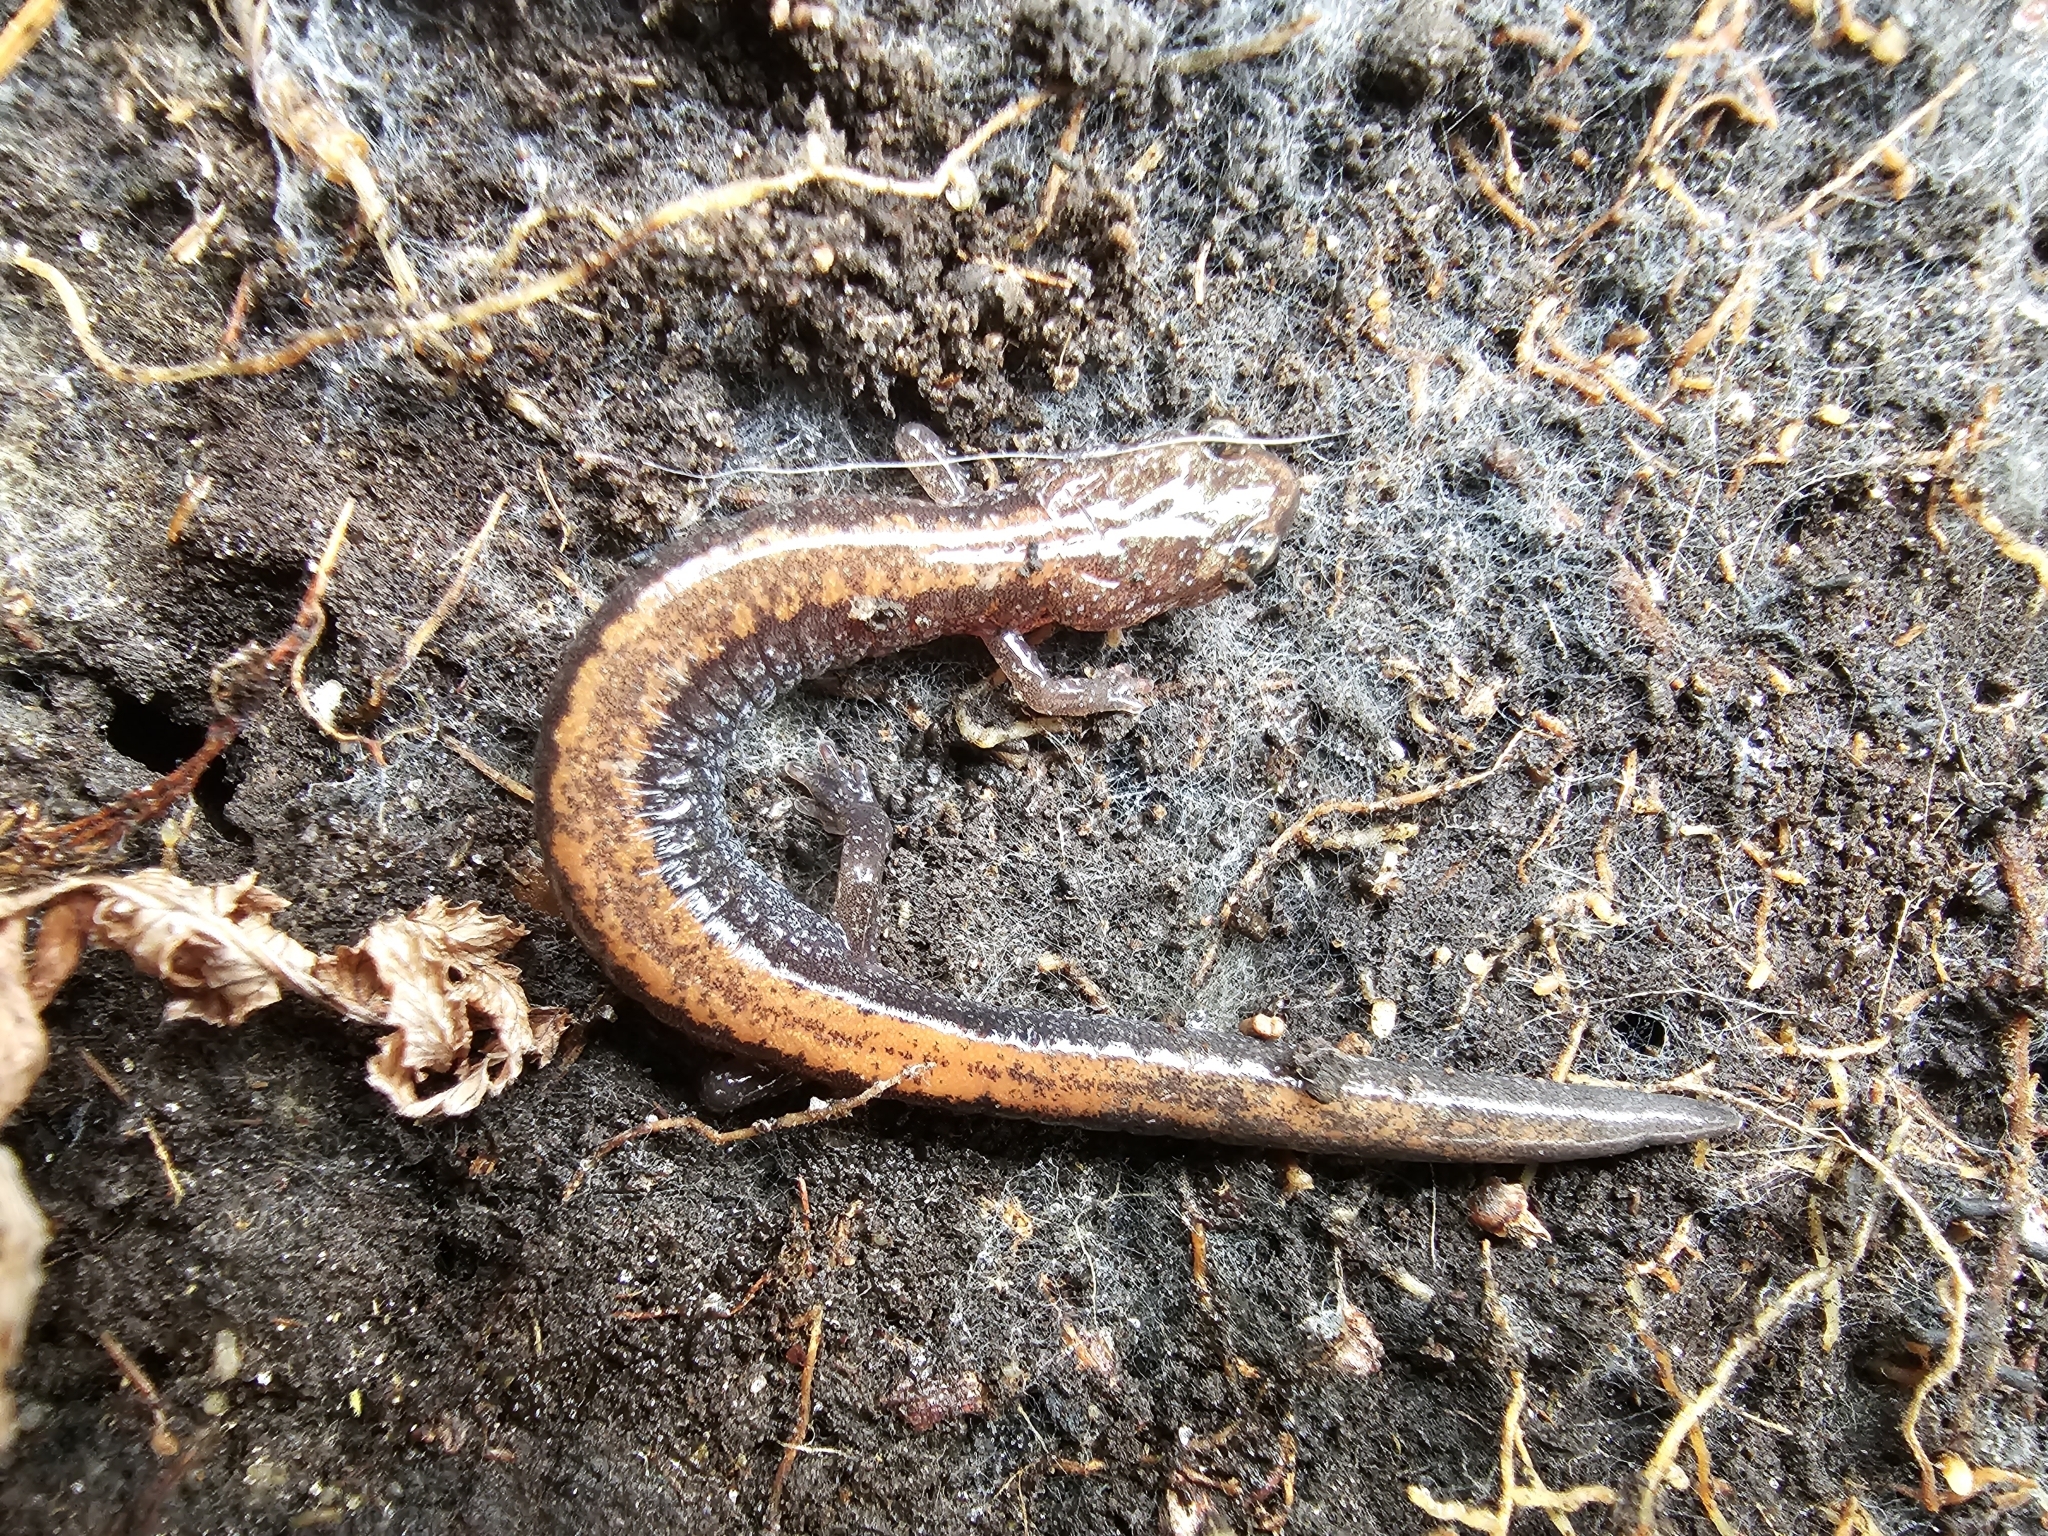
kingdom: Animalia
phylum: Chordata
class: Amphibia
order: Caudata
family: Plethodontidae
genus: Plethodon
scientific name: Plethodon cinereus
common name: Redback salamander
